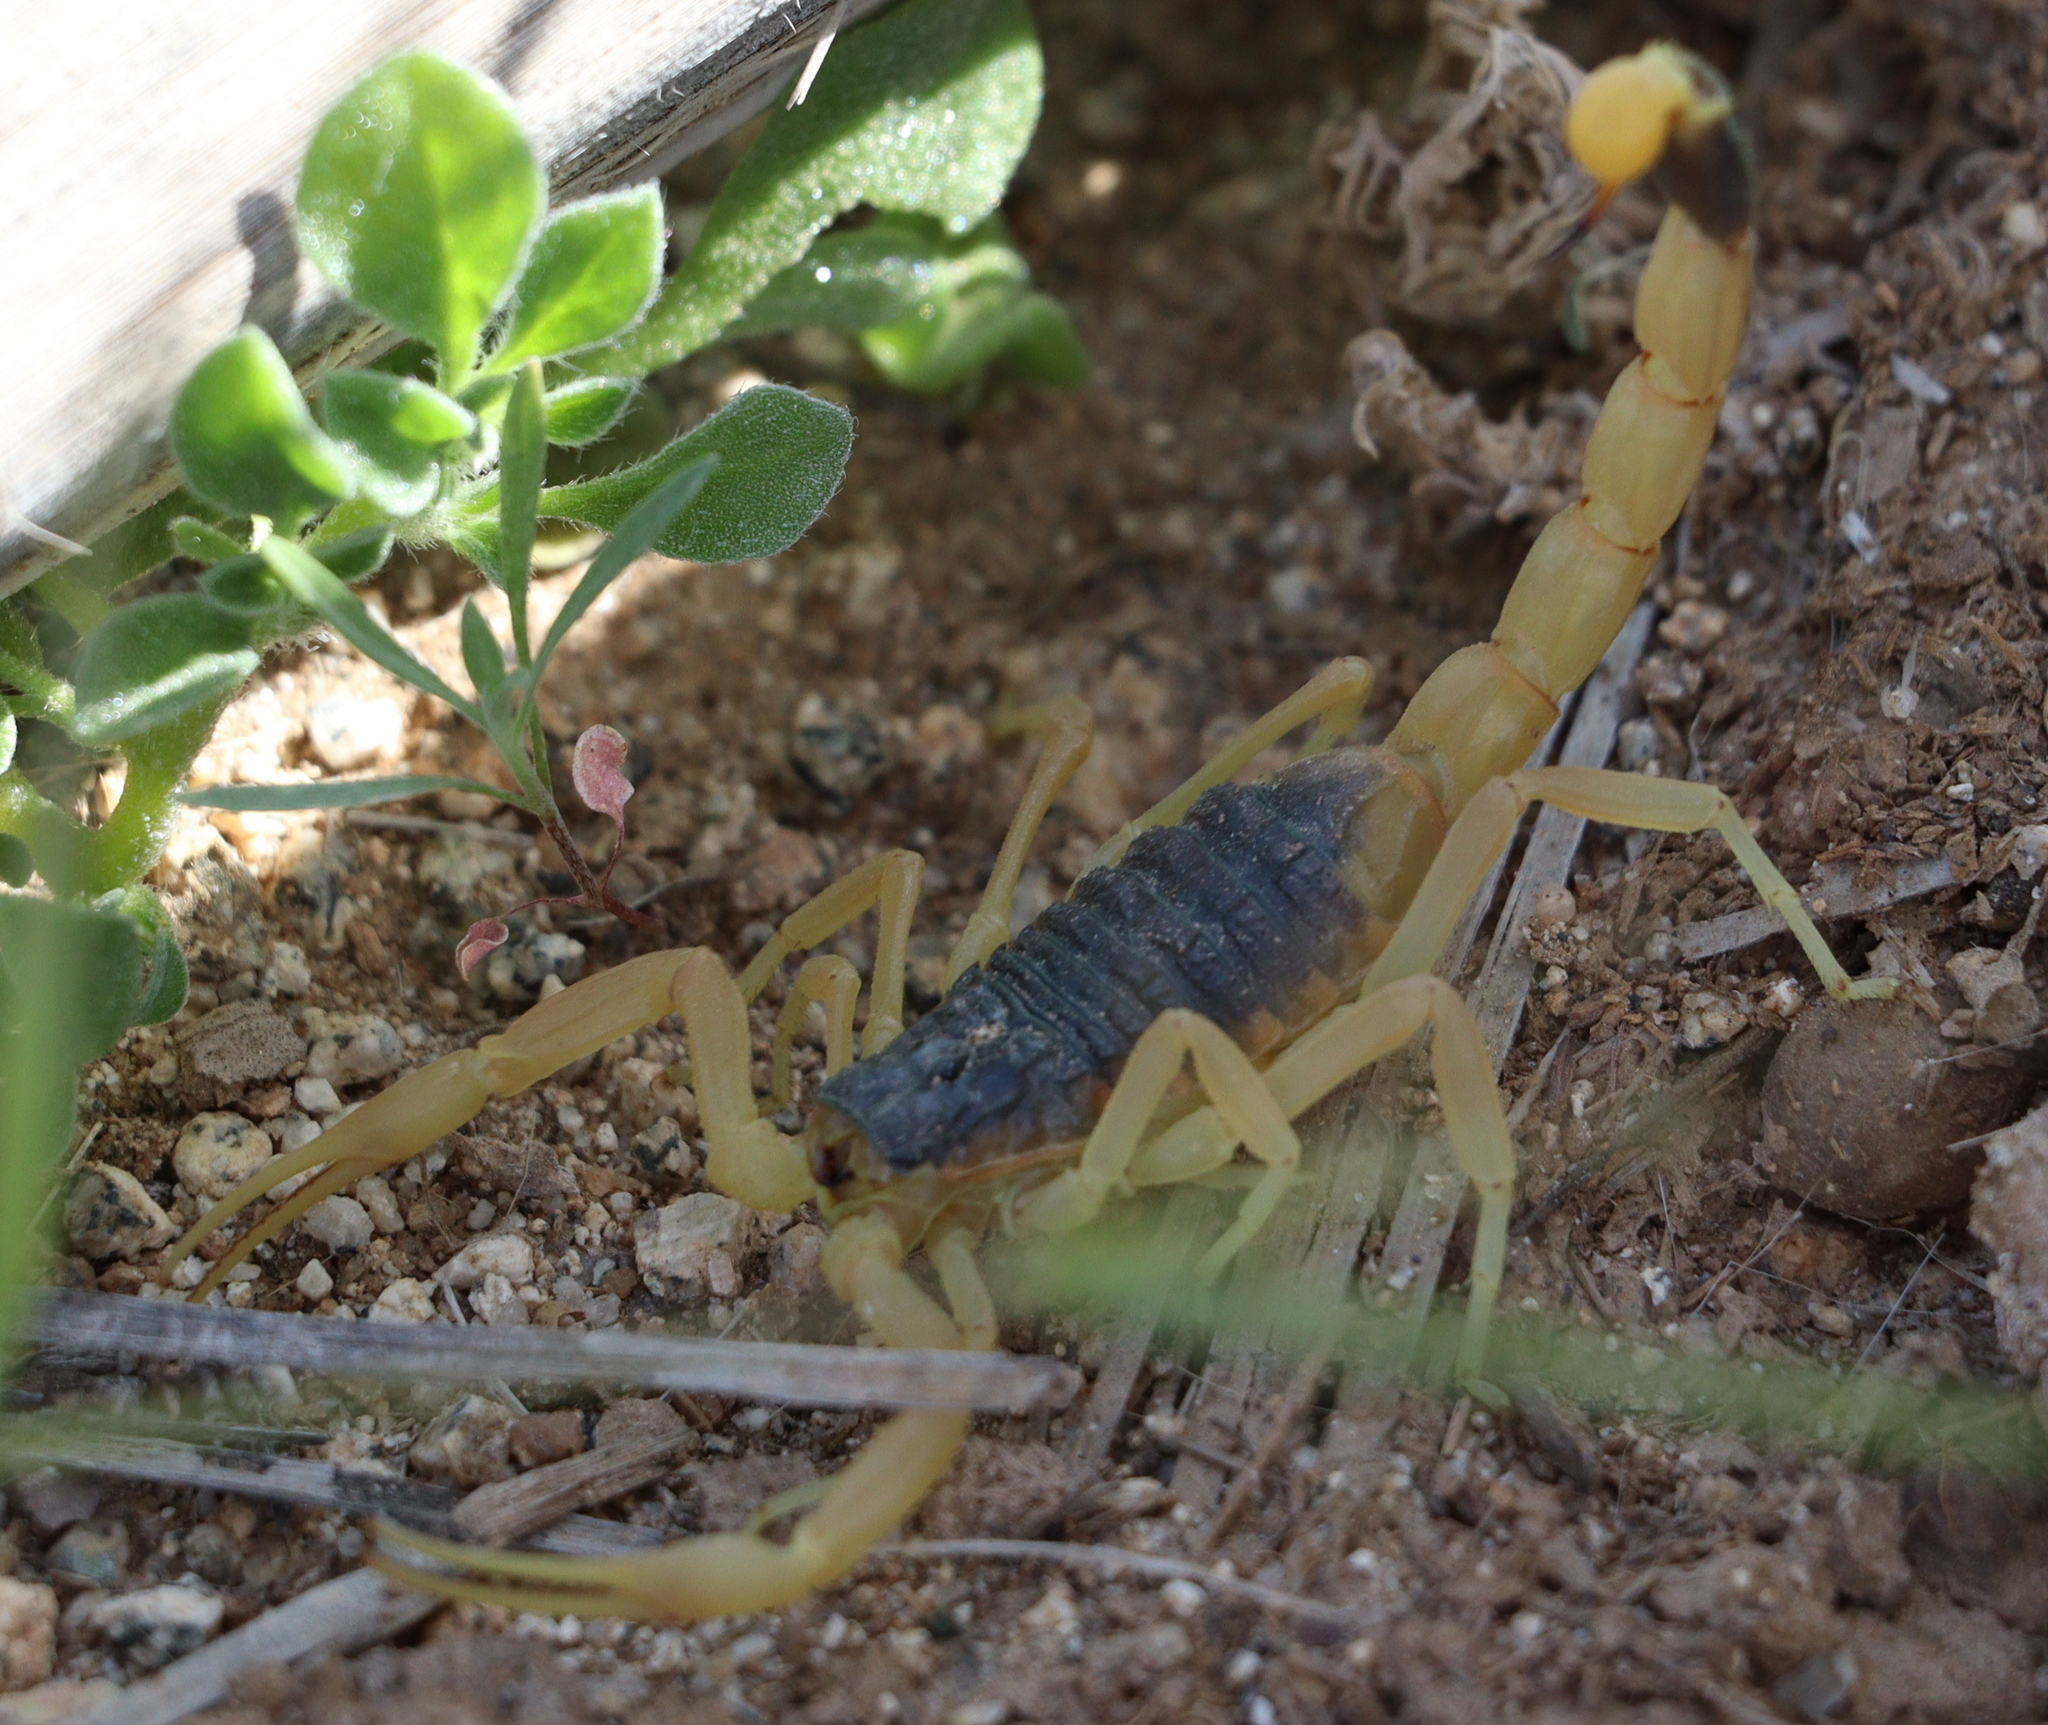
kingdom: Animalia
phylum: Arthropoda
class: Arachnida
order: Scorpiones
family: Buthidae
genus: Leiurus
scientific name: Leiurus haenggii
